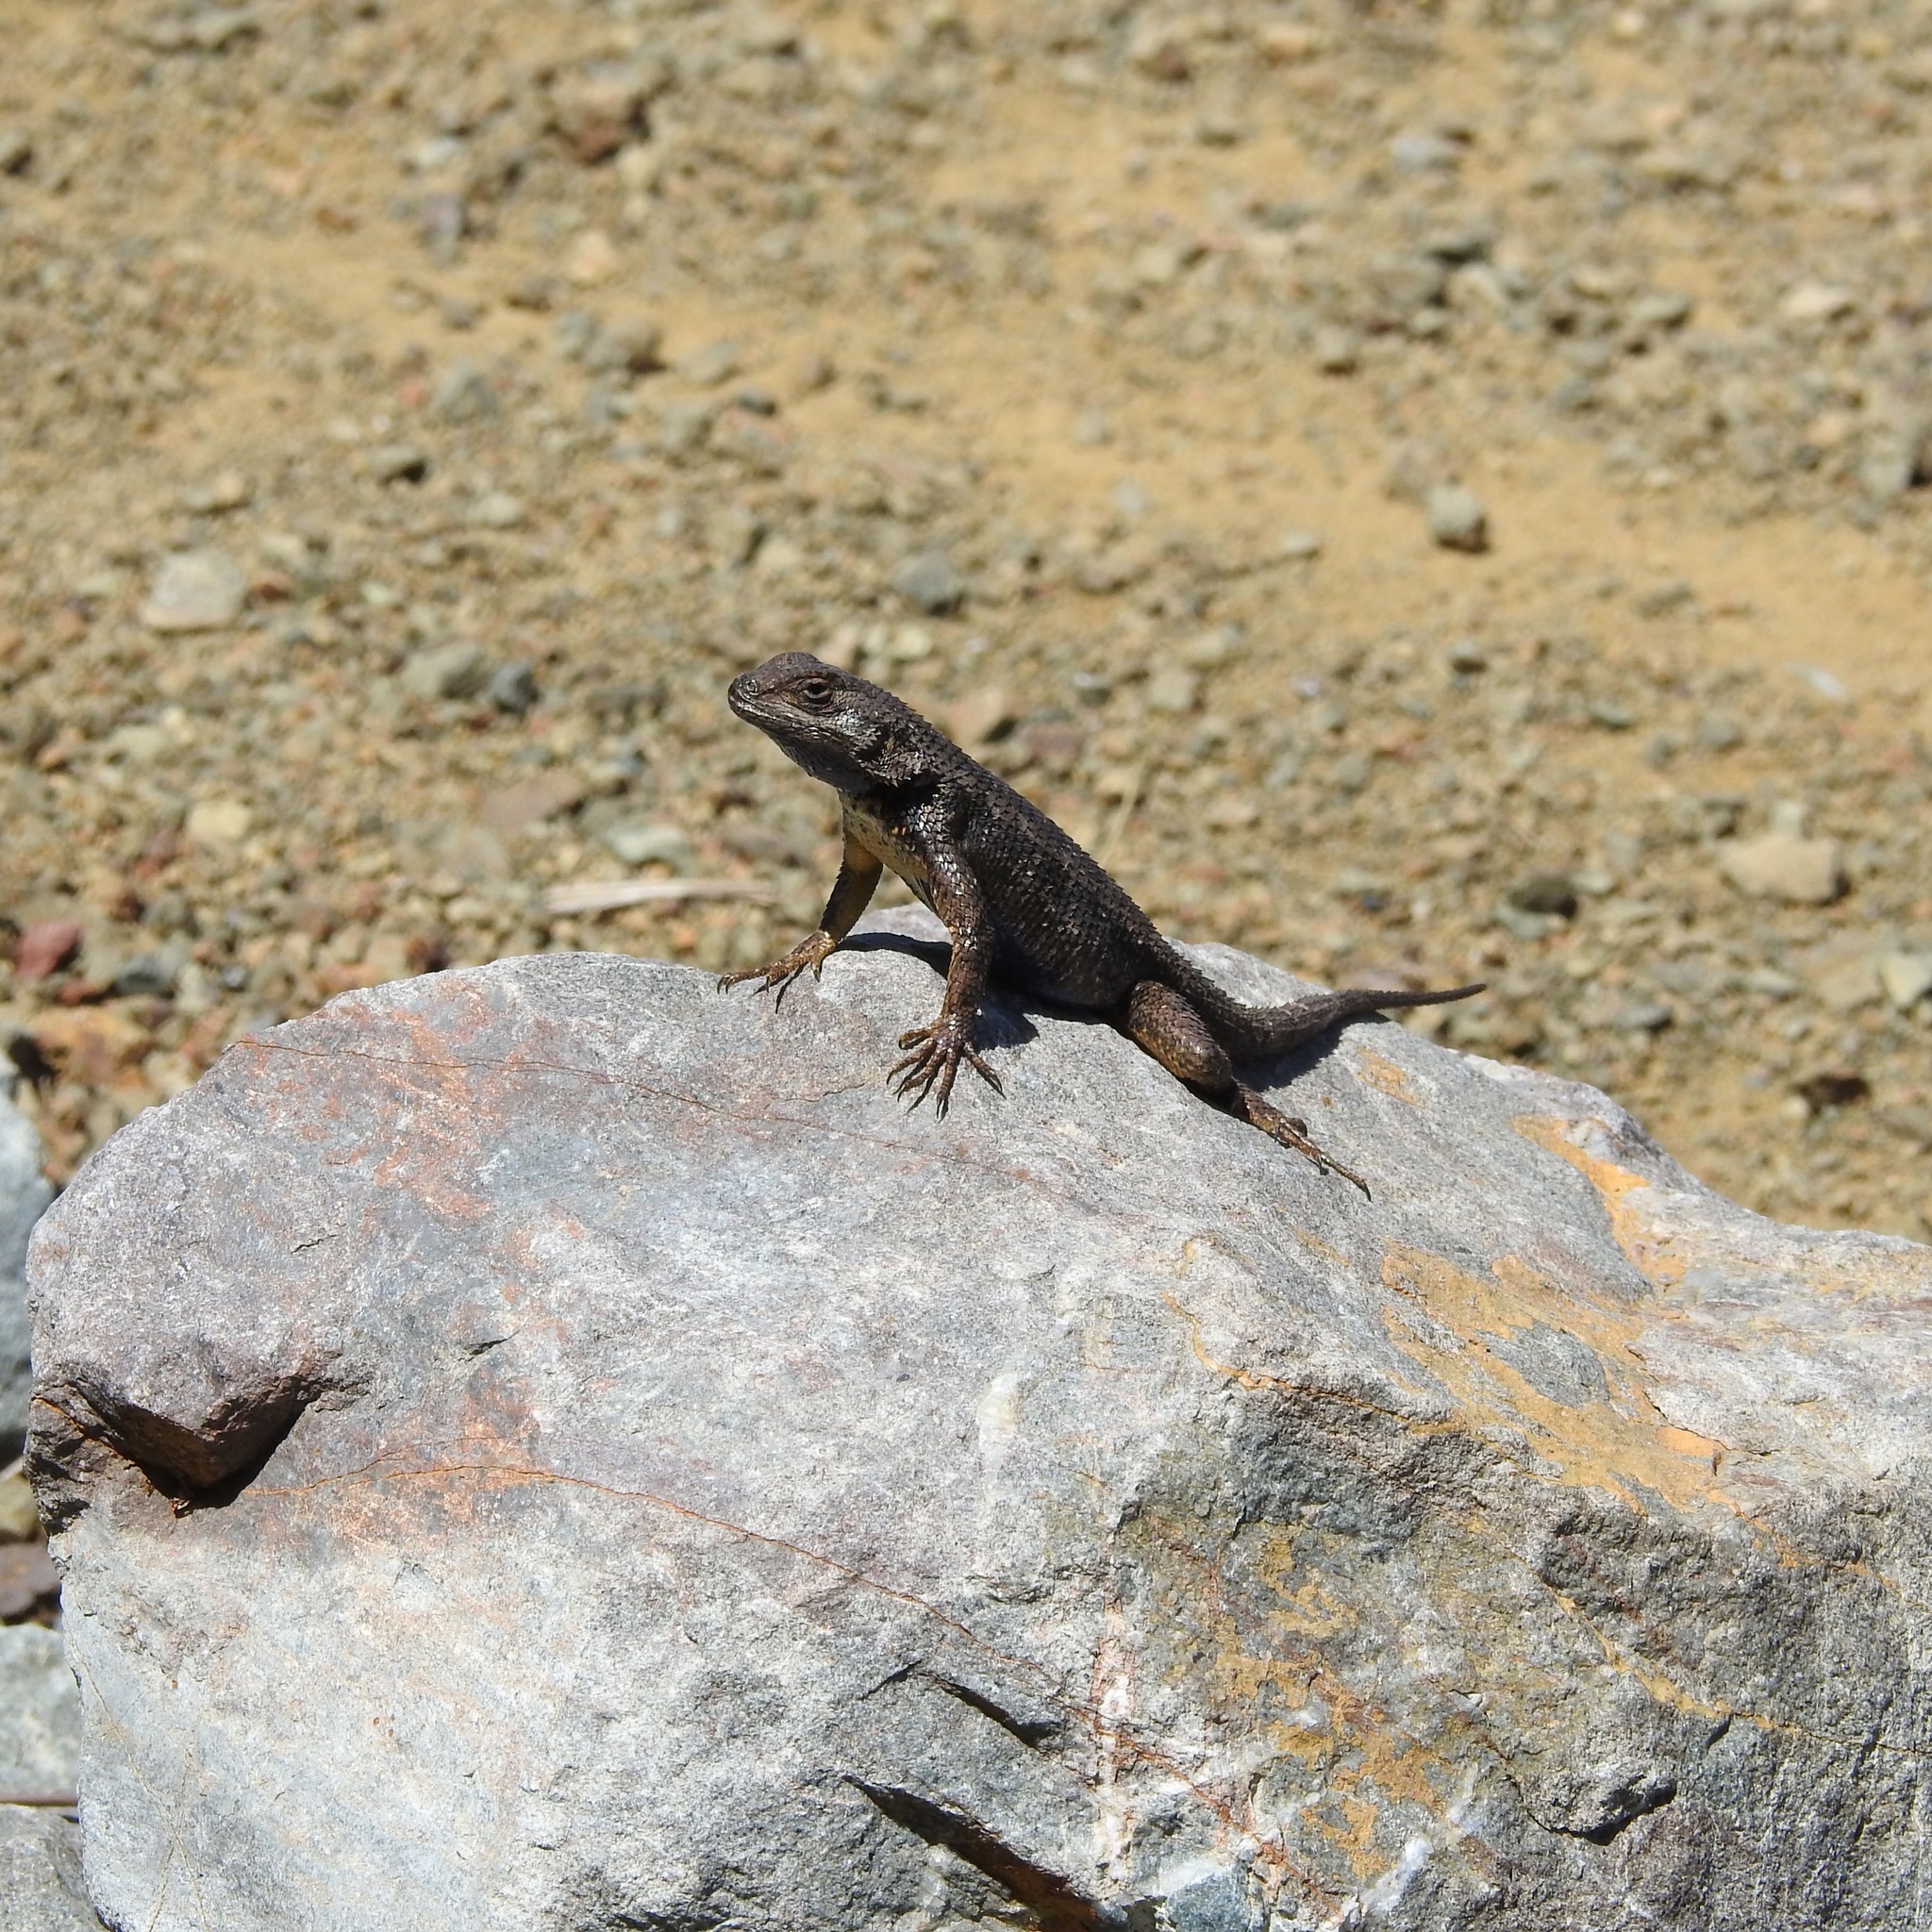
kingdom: Animalia
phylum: Chordata
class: Squamata
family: Phrynosomatidae
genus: Sceloporus
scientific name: Sceloporus occidentalis
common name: Western fence lizard
